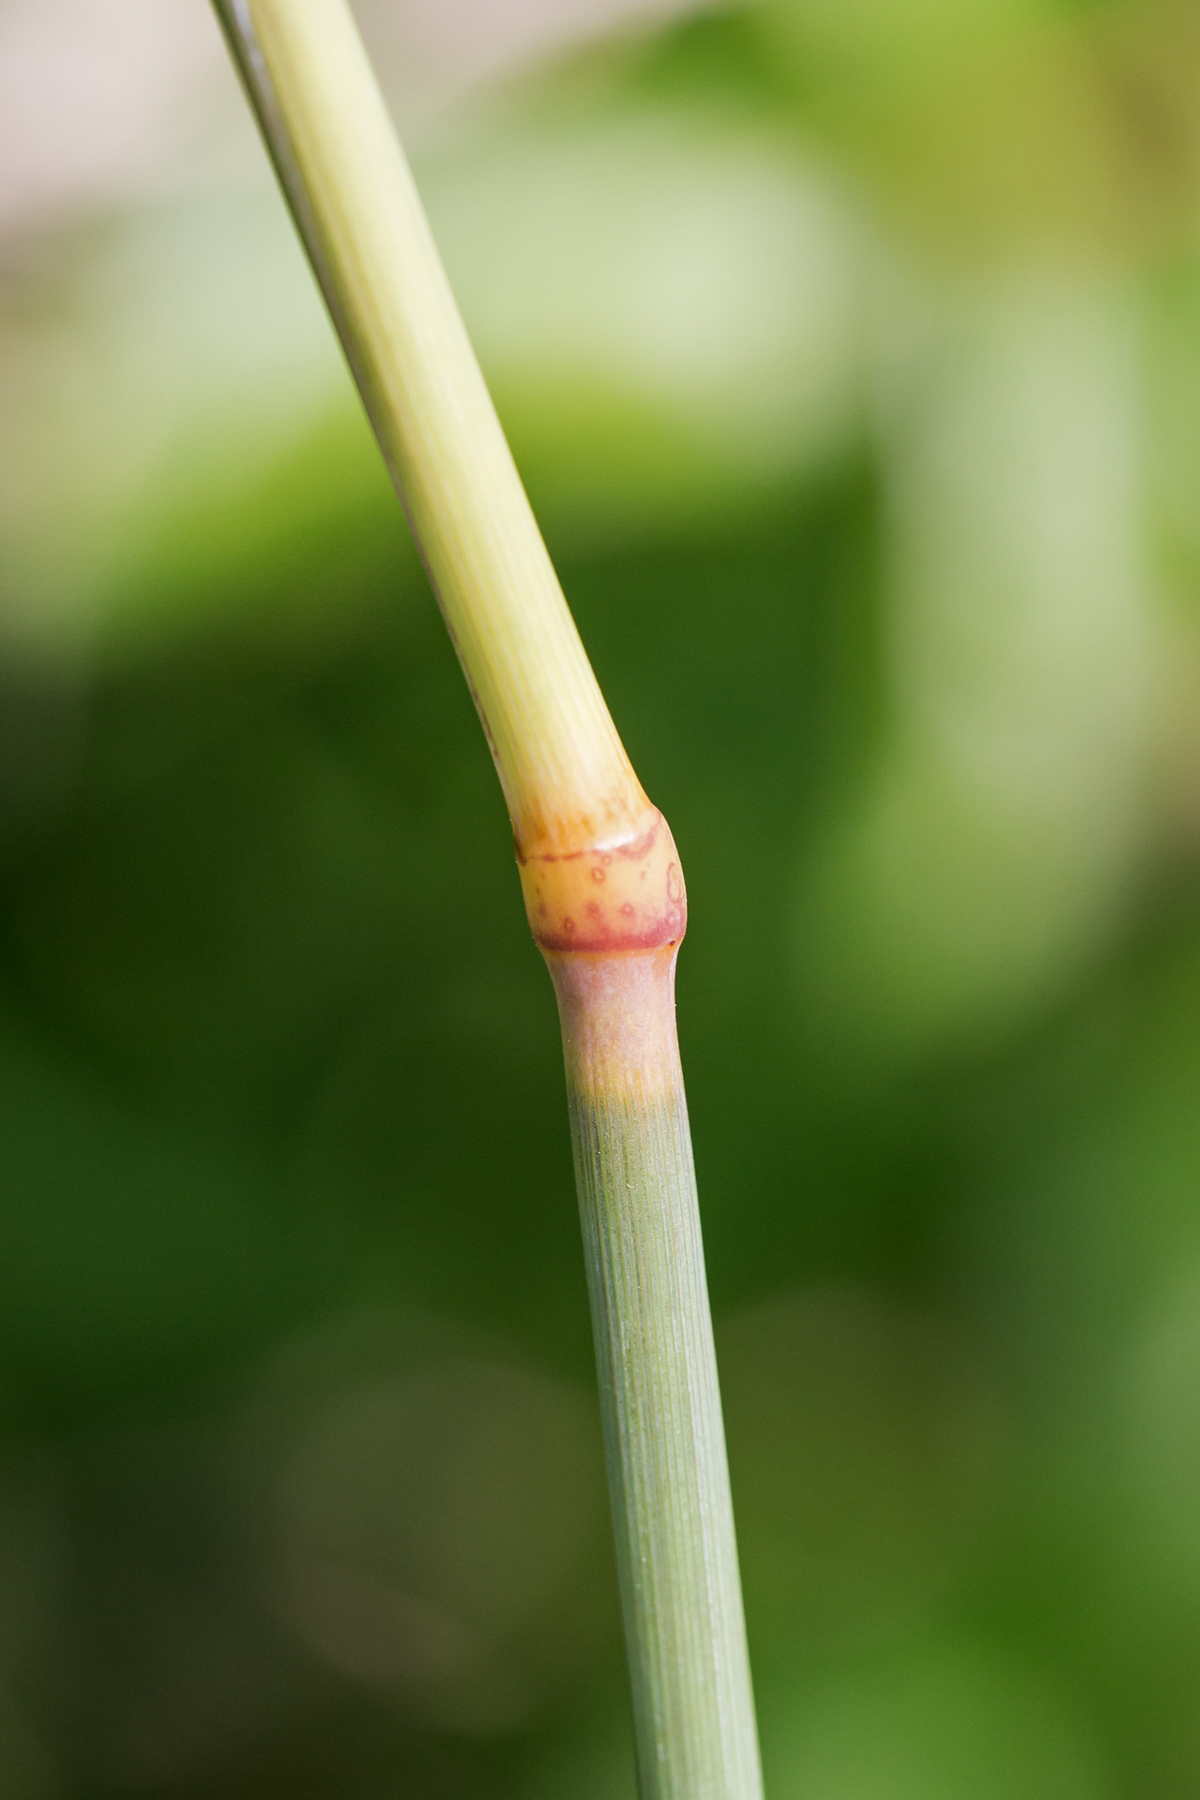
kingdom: Plantae
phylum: Tracheophyta
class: Liliopsida
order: Poales
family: Poaceae
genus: Phalaris
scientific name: Phalaris arundinacea
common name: Reed canary-grass
